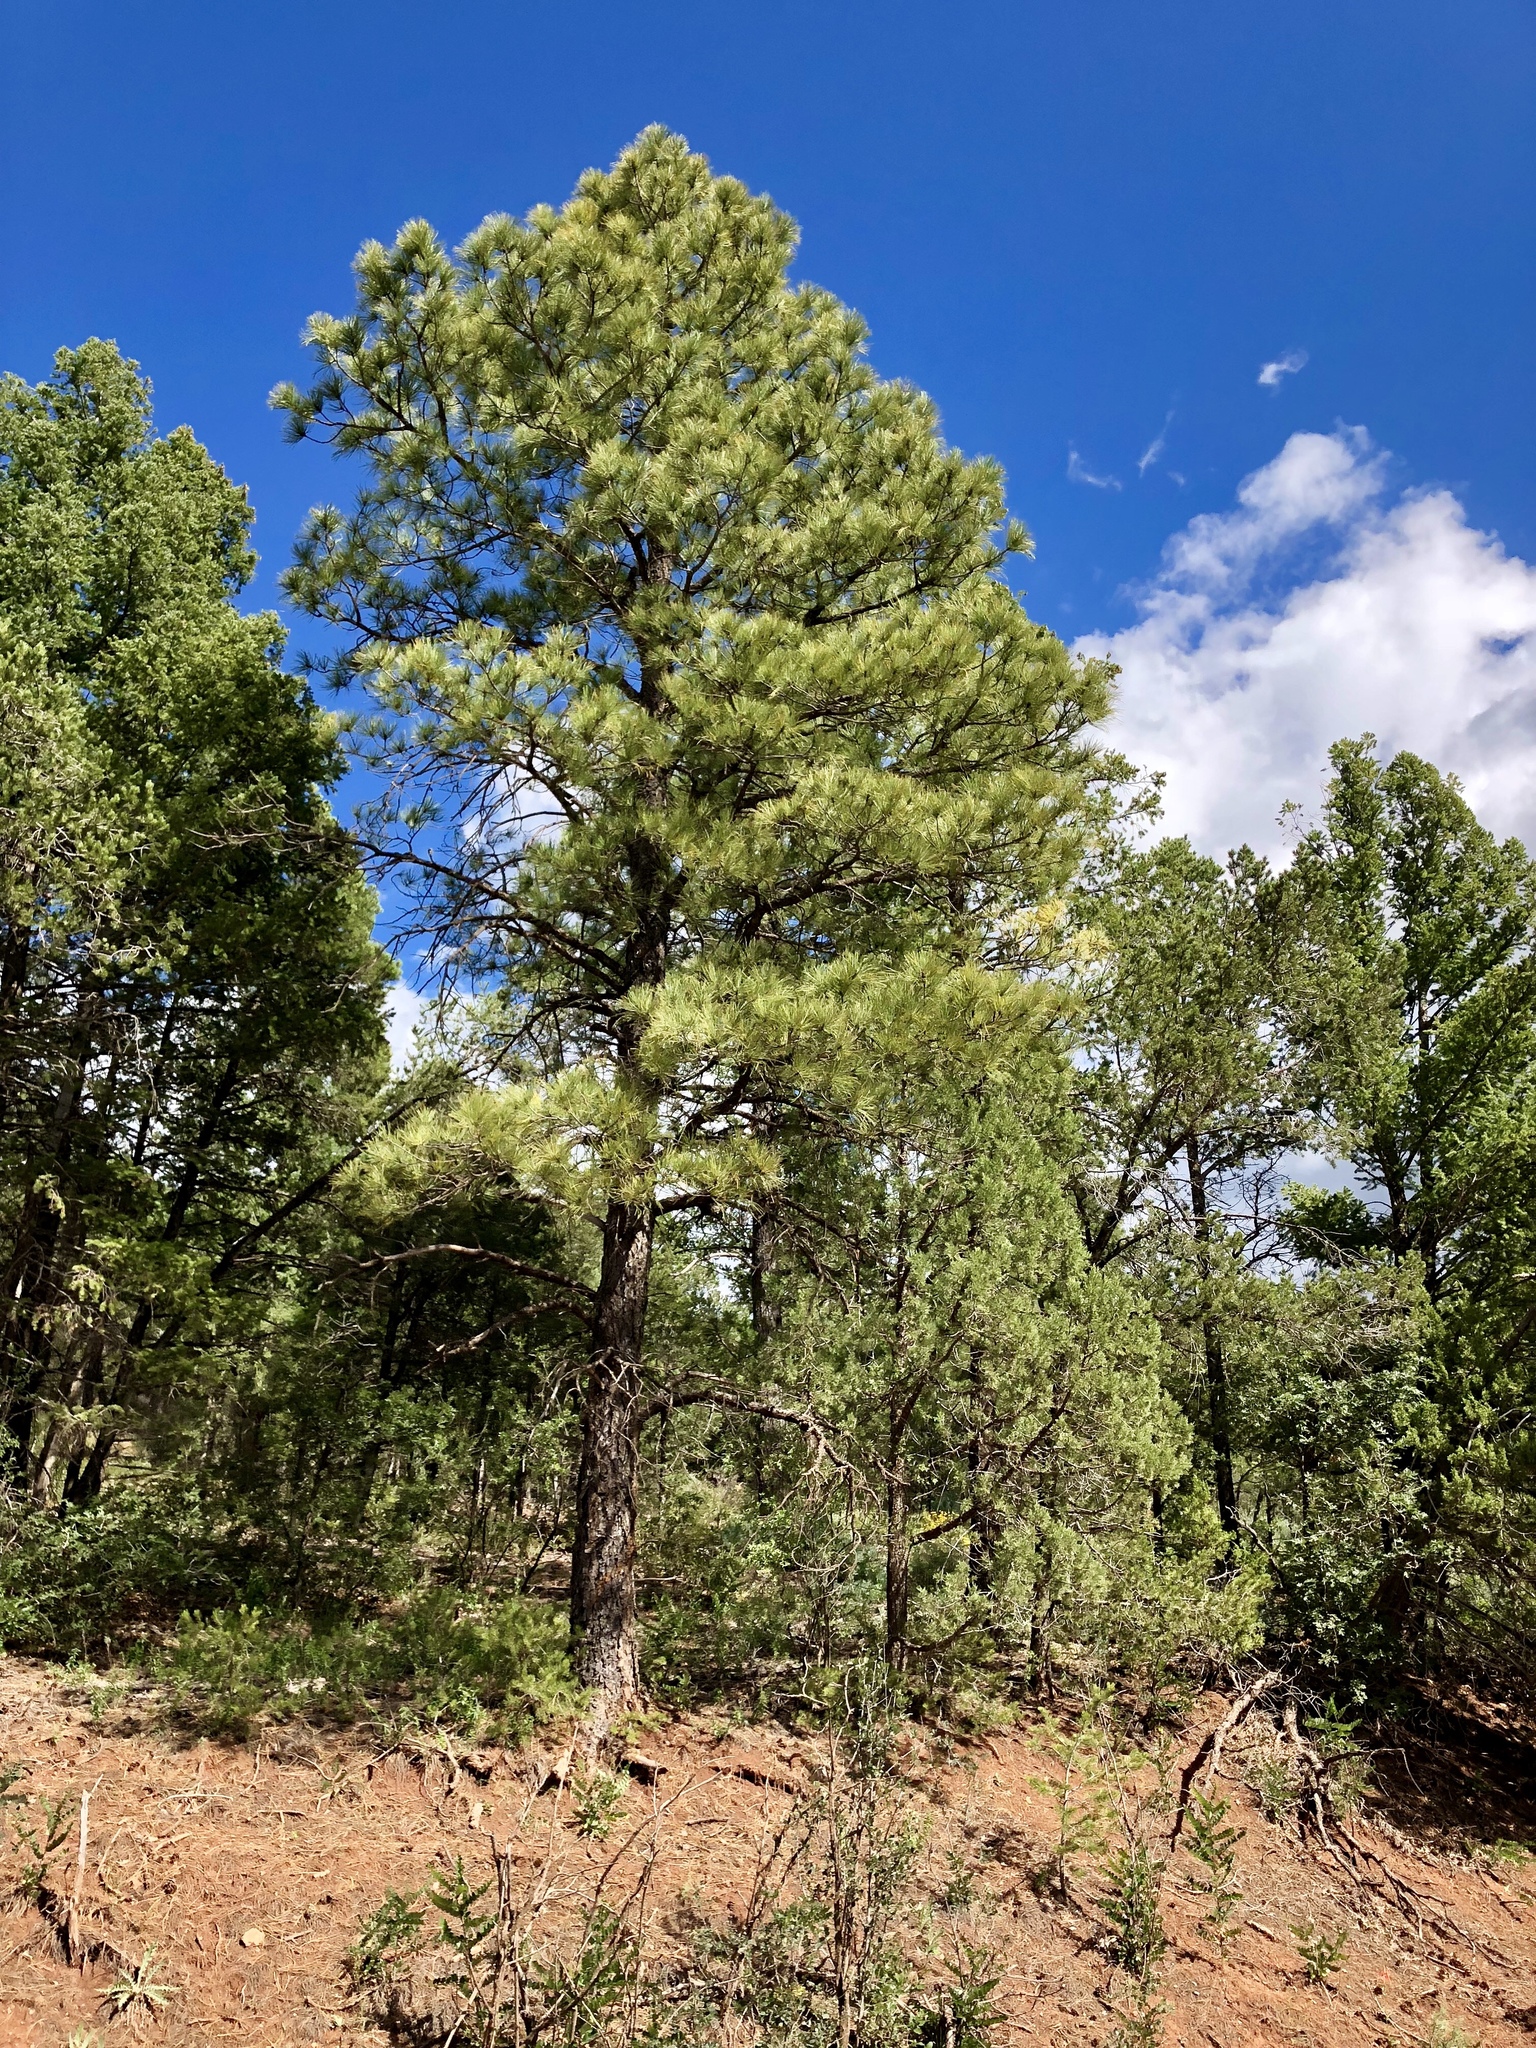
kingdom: Plantae
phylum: Tracheophyta
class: Pinopsida
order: Pinales
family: Pinaceae
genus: Pinus
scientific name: Pinus ponderosa
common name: Western yellow-pine
